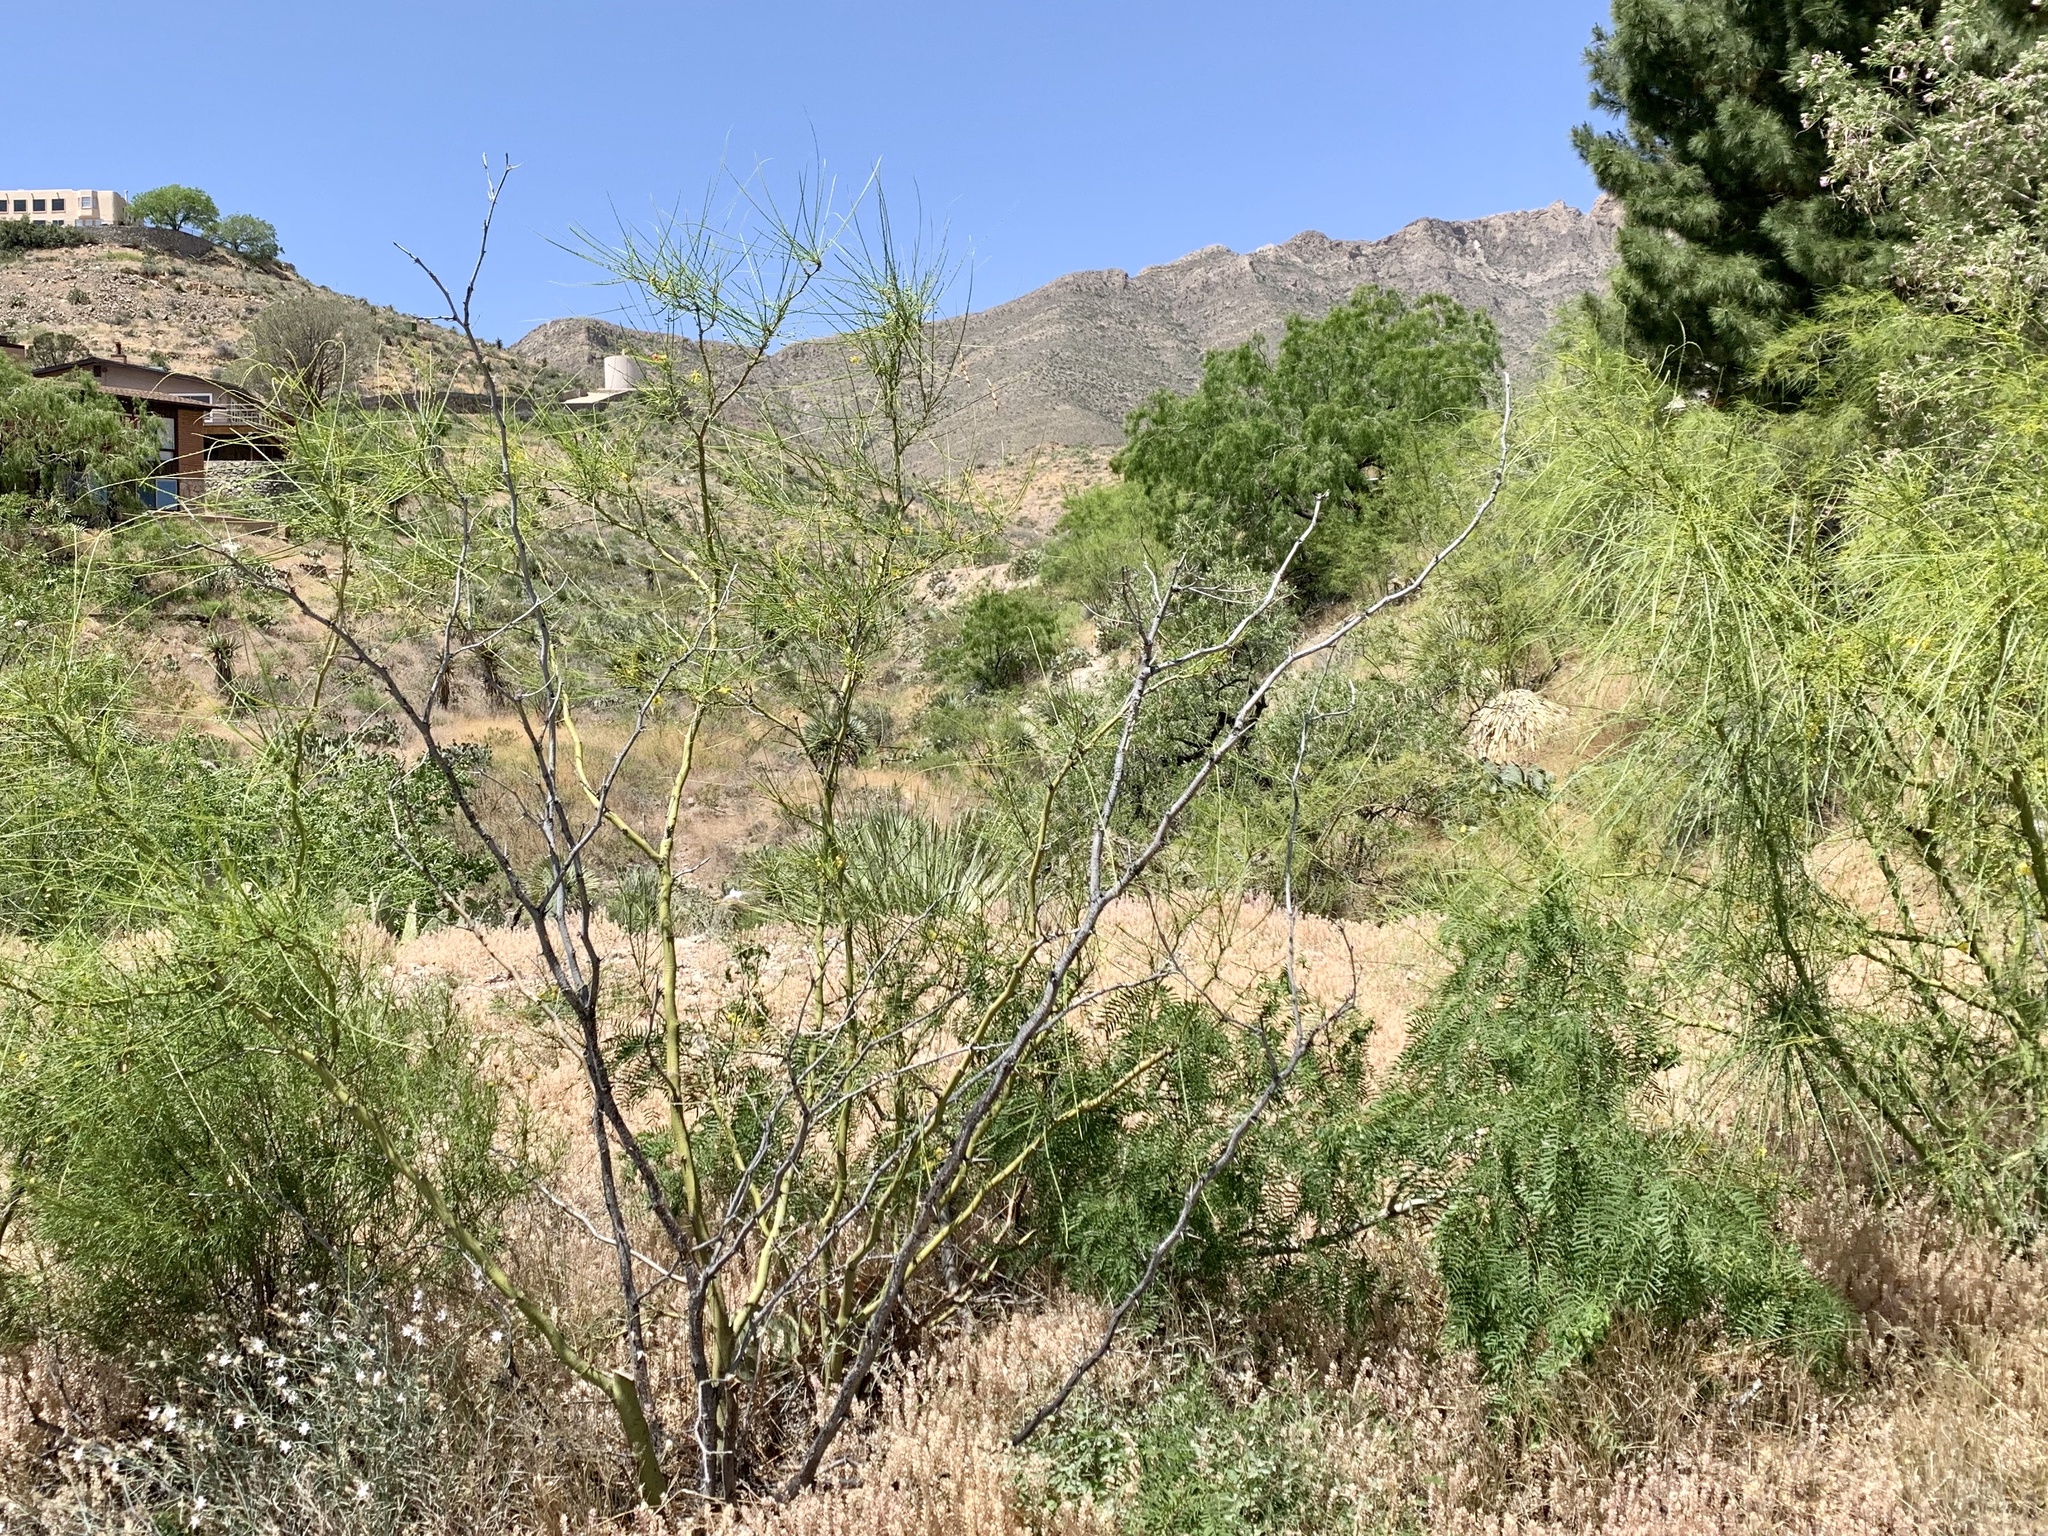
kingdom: Plantae
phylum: Tracheophyta
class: Magnoliopsida
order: Fabales
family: Fabaceae
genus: Parkinsonia
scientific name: Parkinsonia aculeata
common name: Jerusalem thorn
